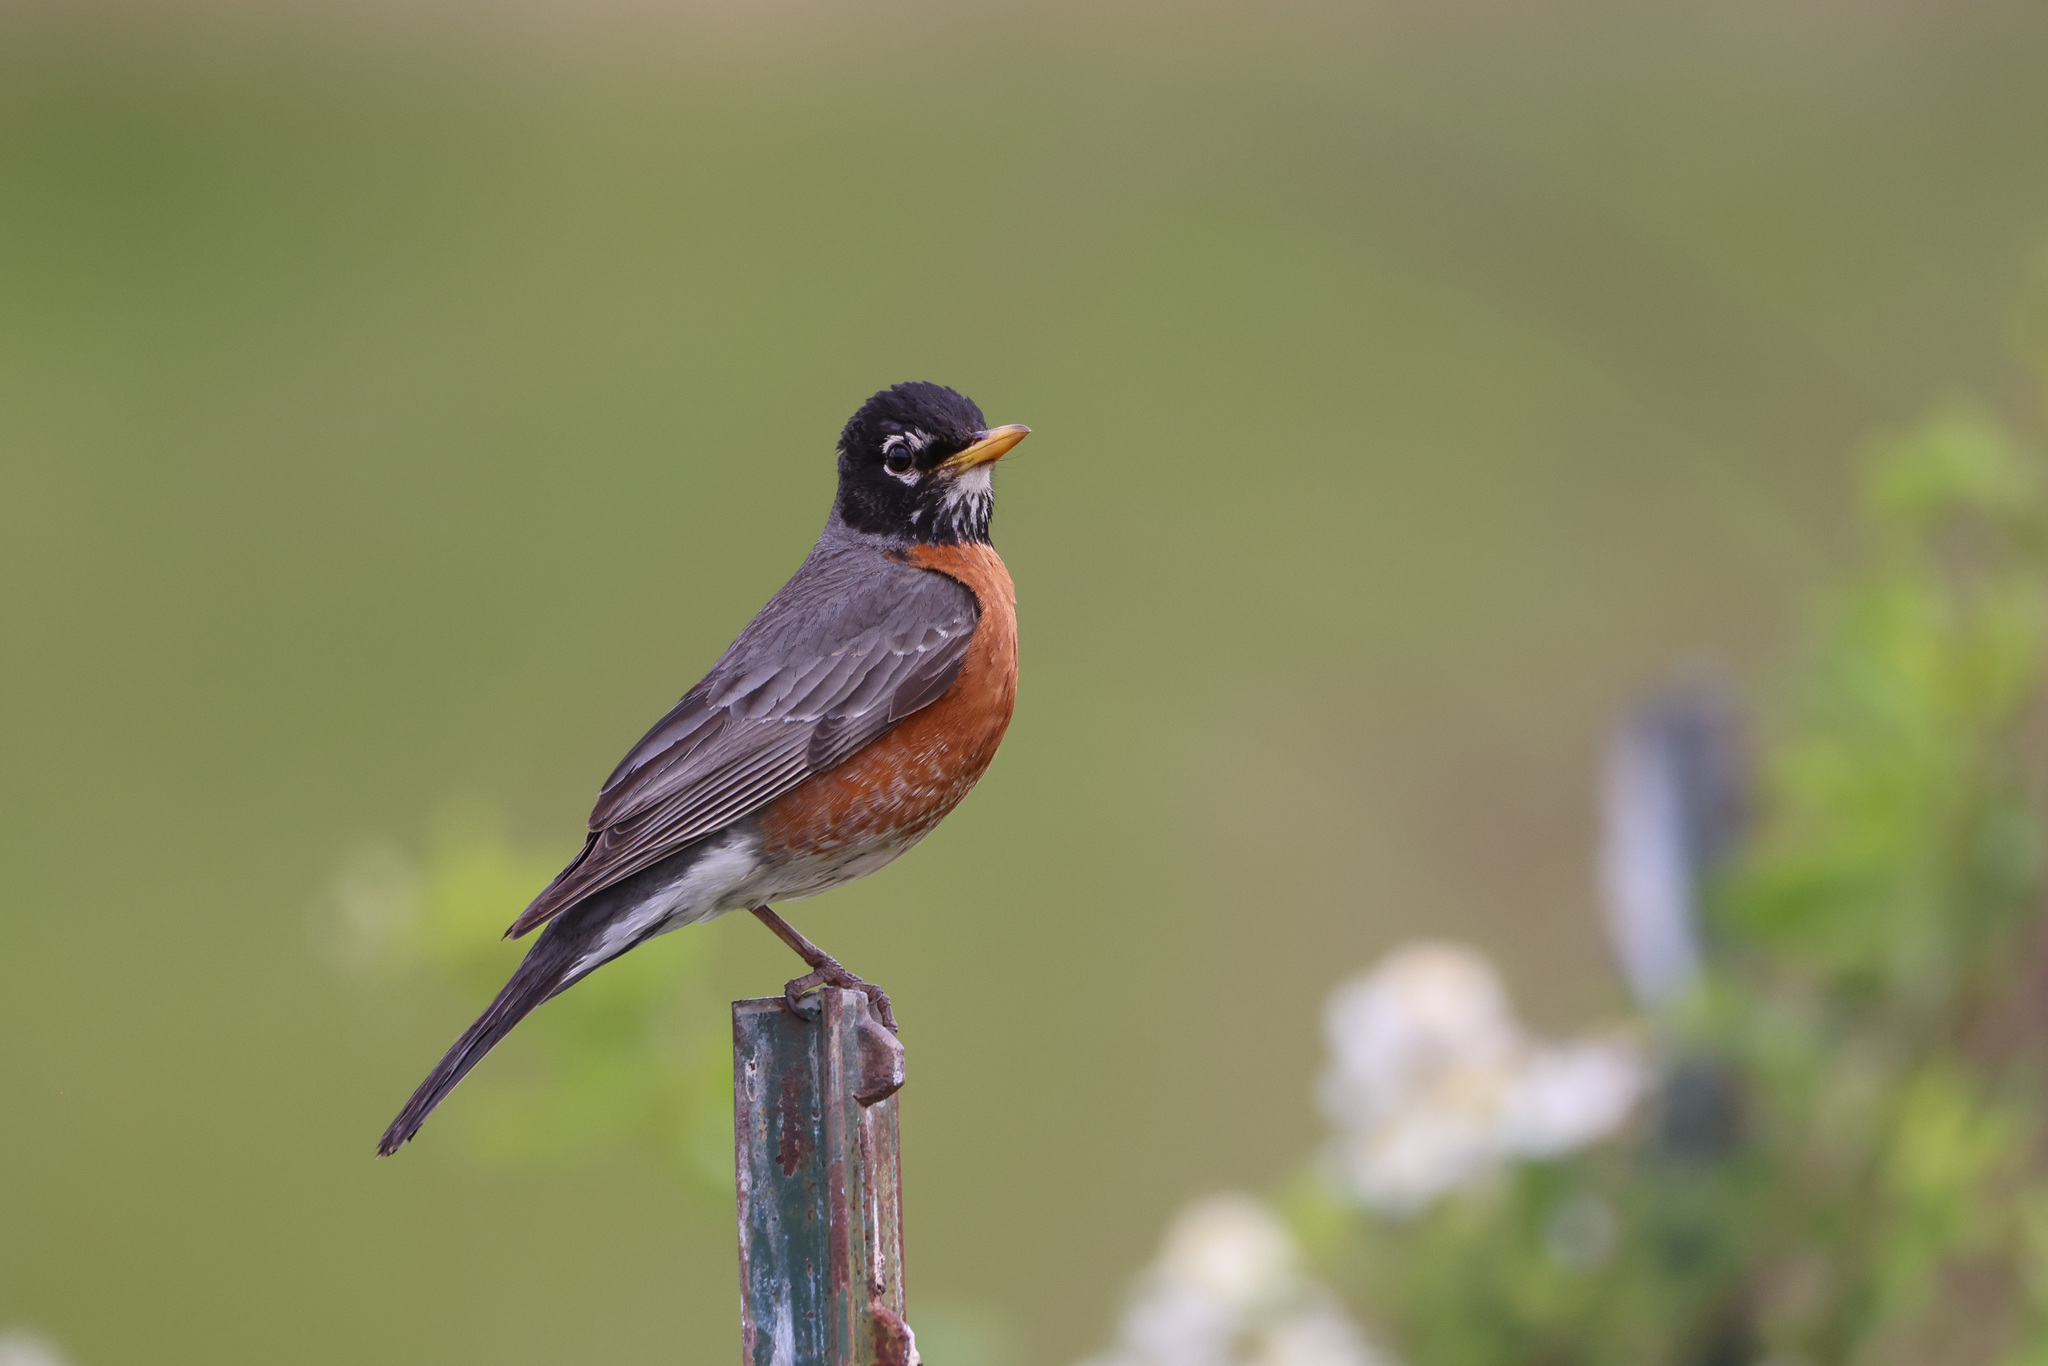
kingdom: Animalia
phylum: Chordata
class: Aves
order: Passeriformes
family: Turdidae
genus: Turdus
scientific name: Turdus migratorius
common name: American robin
